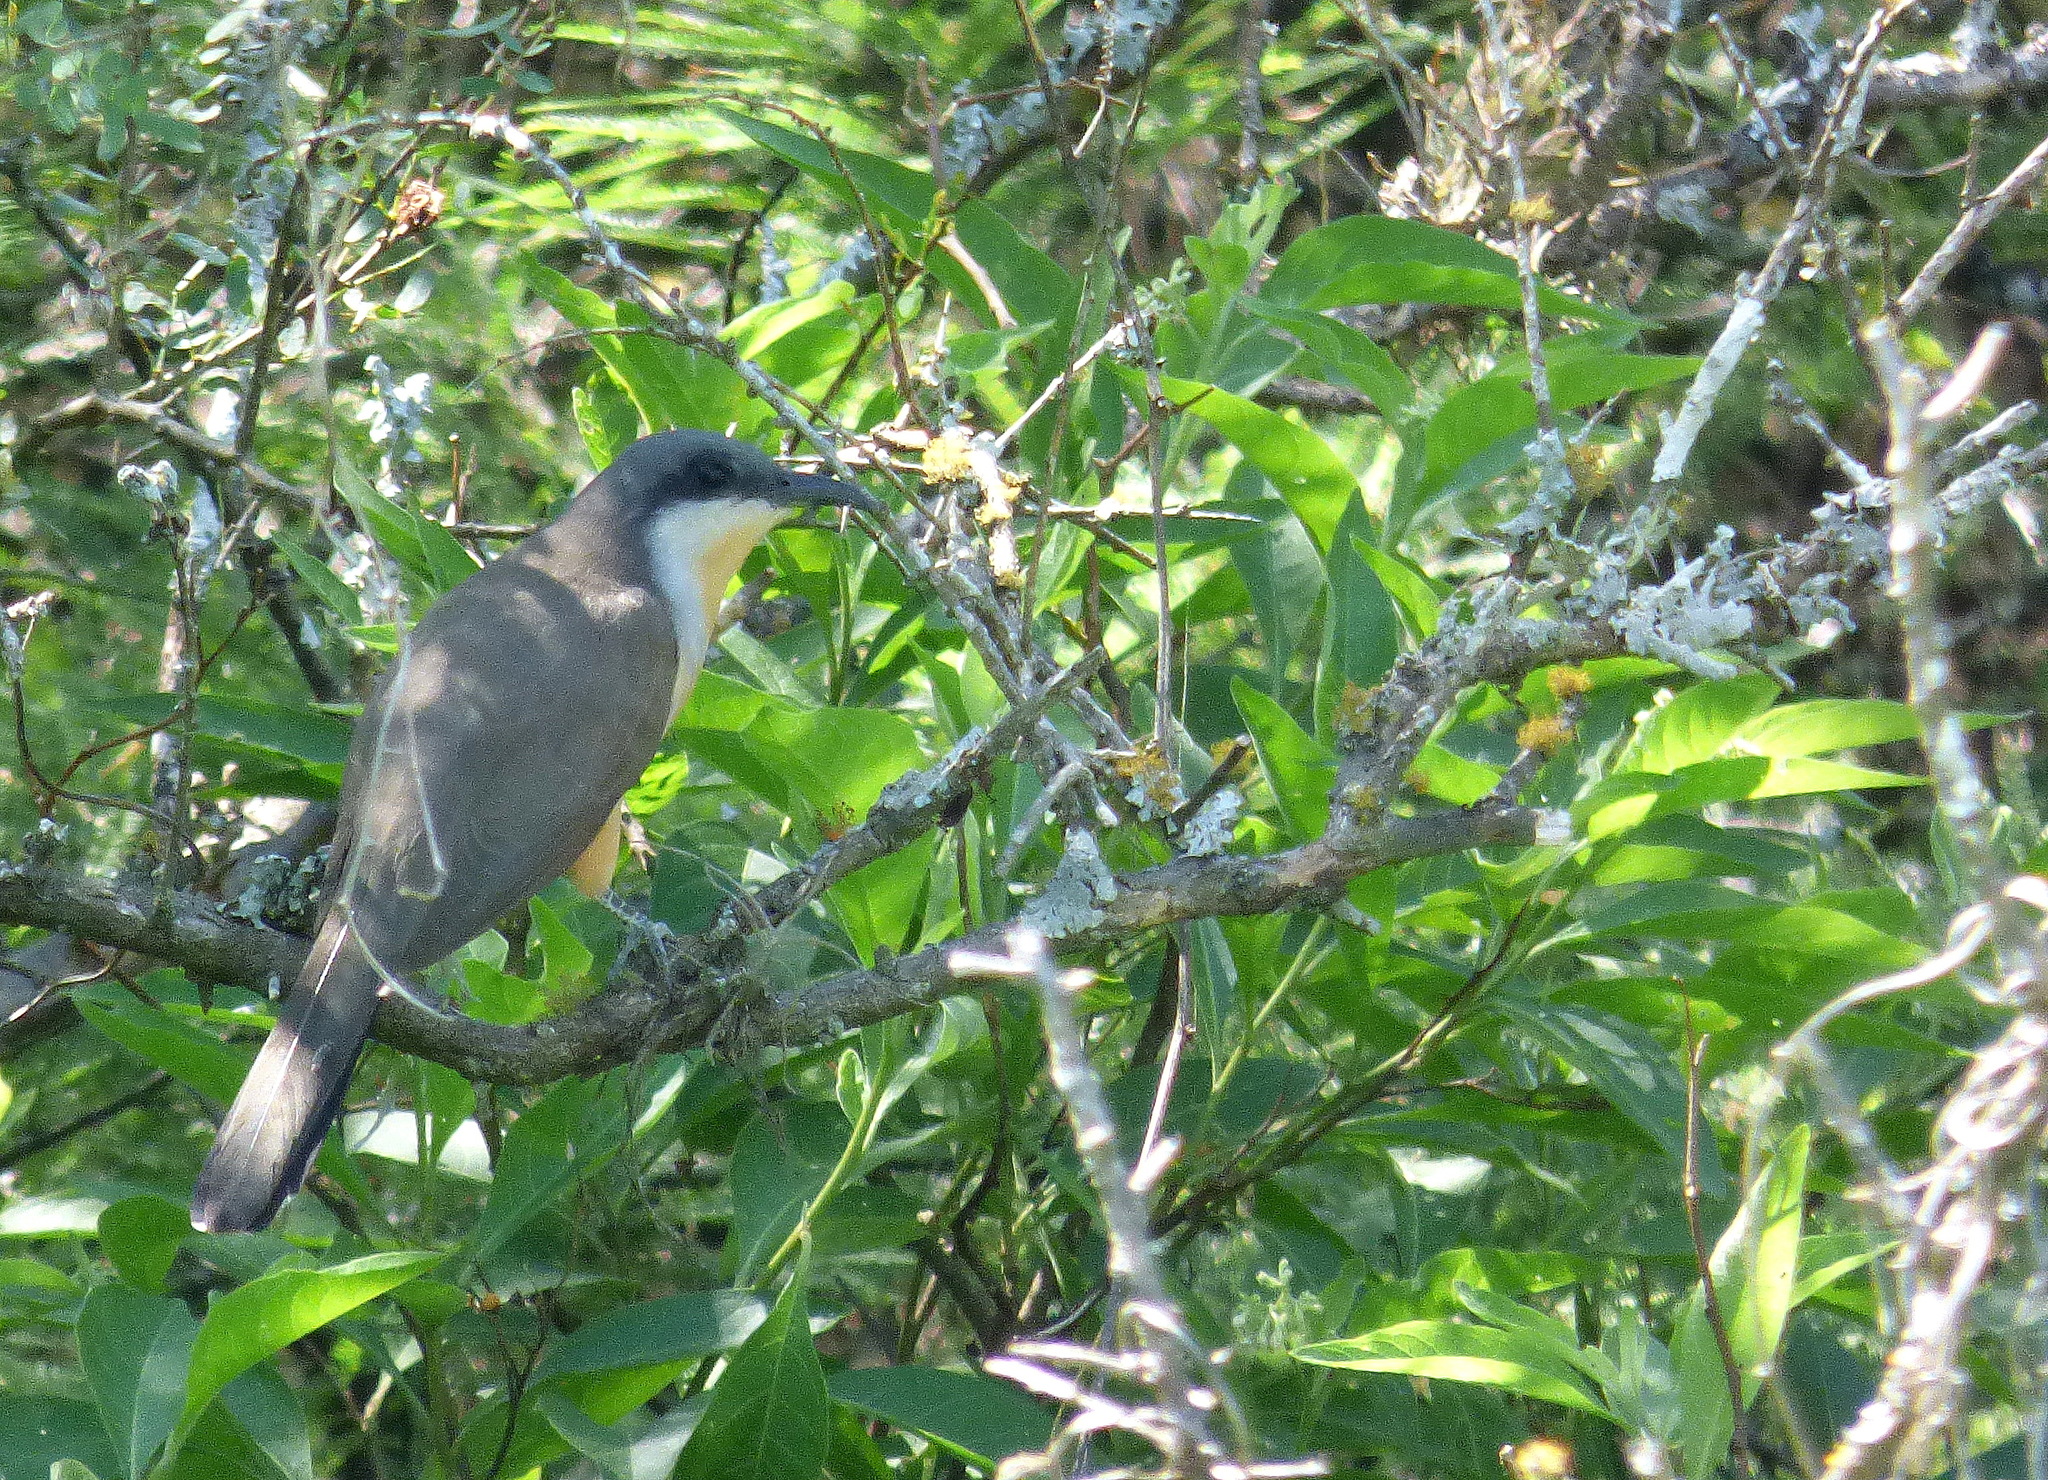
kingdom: Animalia
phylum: Chordata
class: Aves
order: Cuculiformes
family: Cuculidae
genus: Coccyzus
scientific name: Coccyzus melacoryphus
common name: Dark-billed cuckoo
